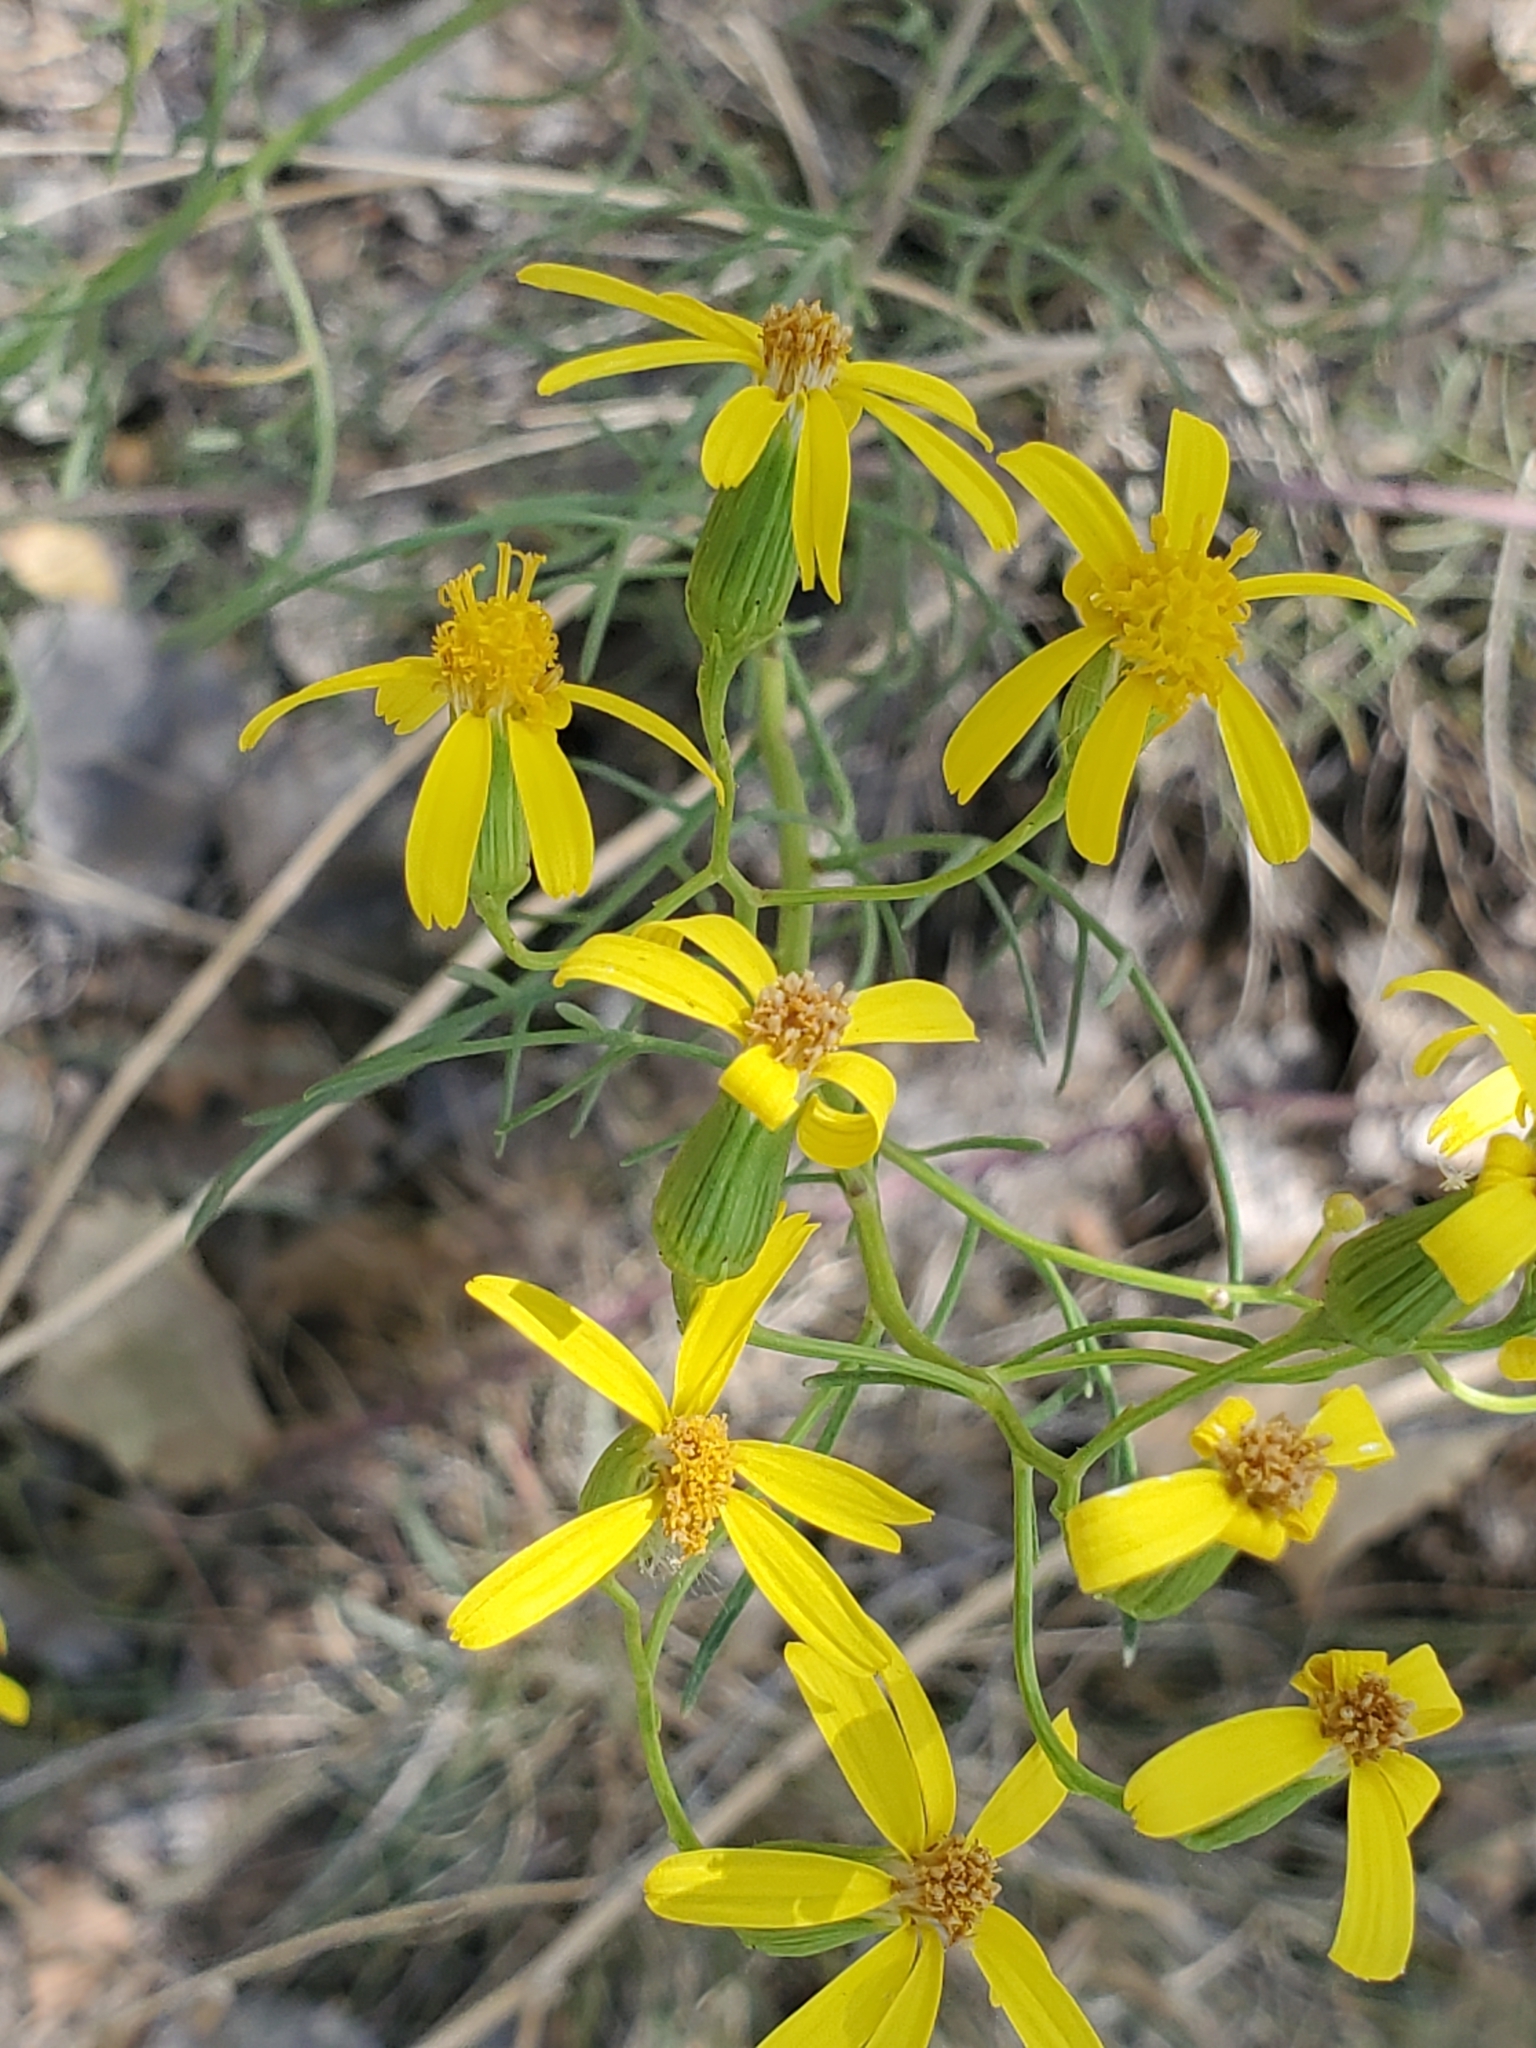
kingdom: Plantae
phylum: Tracheophyta
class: Magnoliopsida
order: Asterales
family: Asteraceae
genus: Senecio
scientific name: Senecio spartioides
